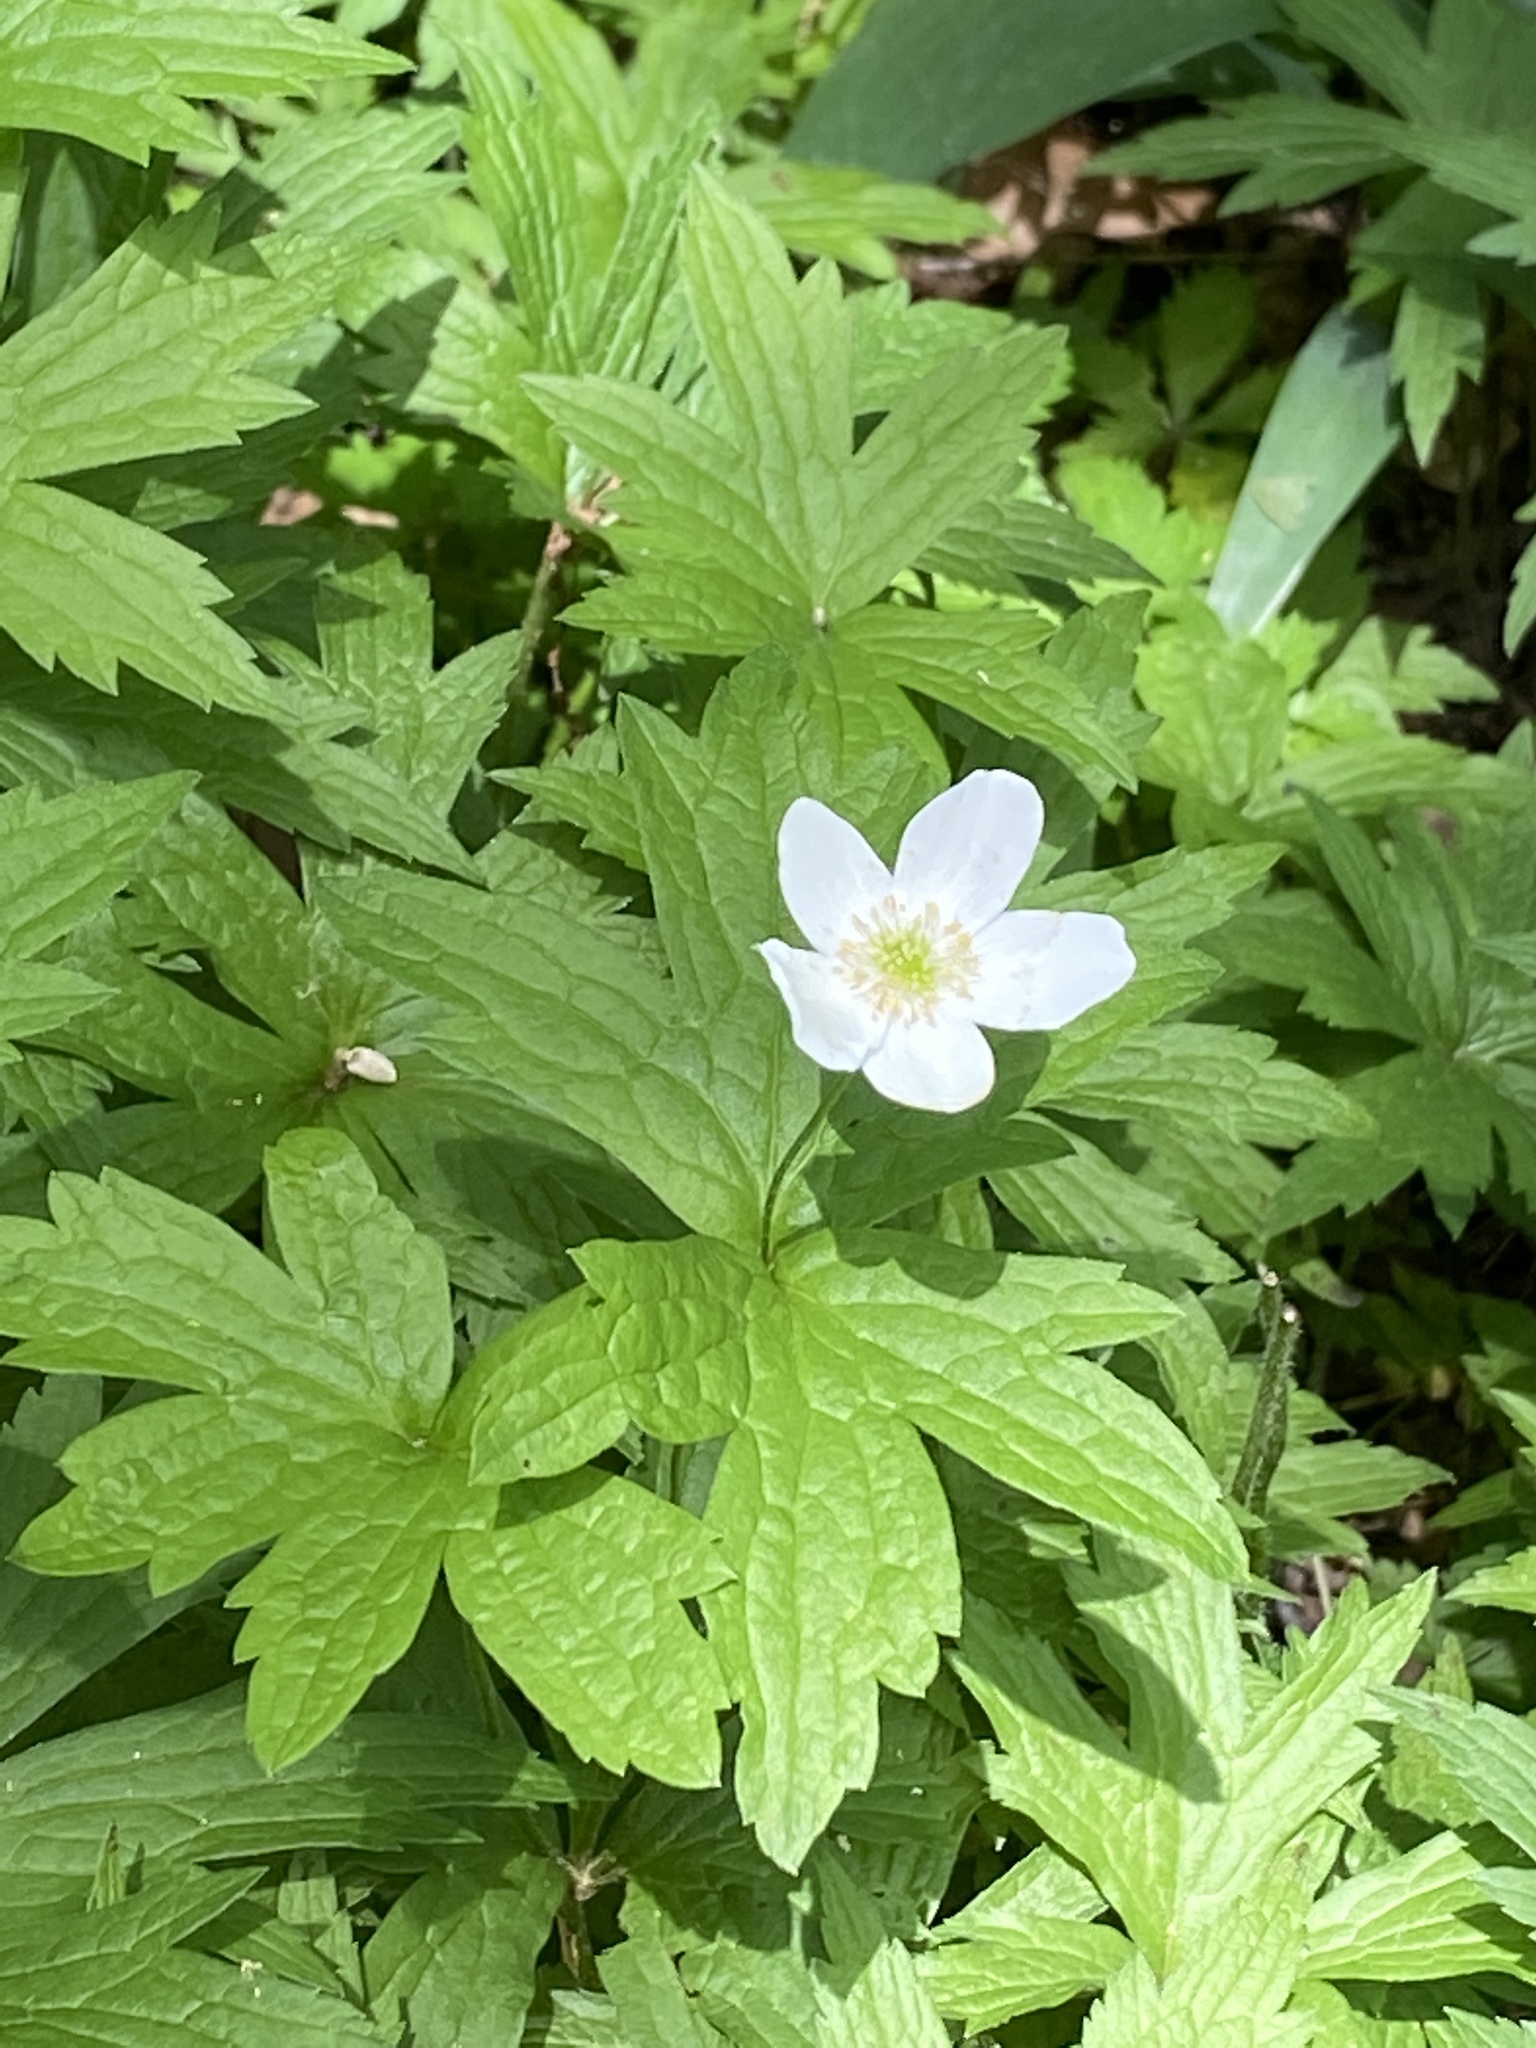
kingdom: Plantae
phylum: Tracheophyta
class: Magnoliopsida
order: Ranunculales
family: Ranunculaceae
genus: Anemonastrum
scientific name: Anemonastrum canadense
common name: Canada anemone
